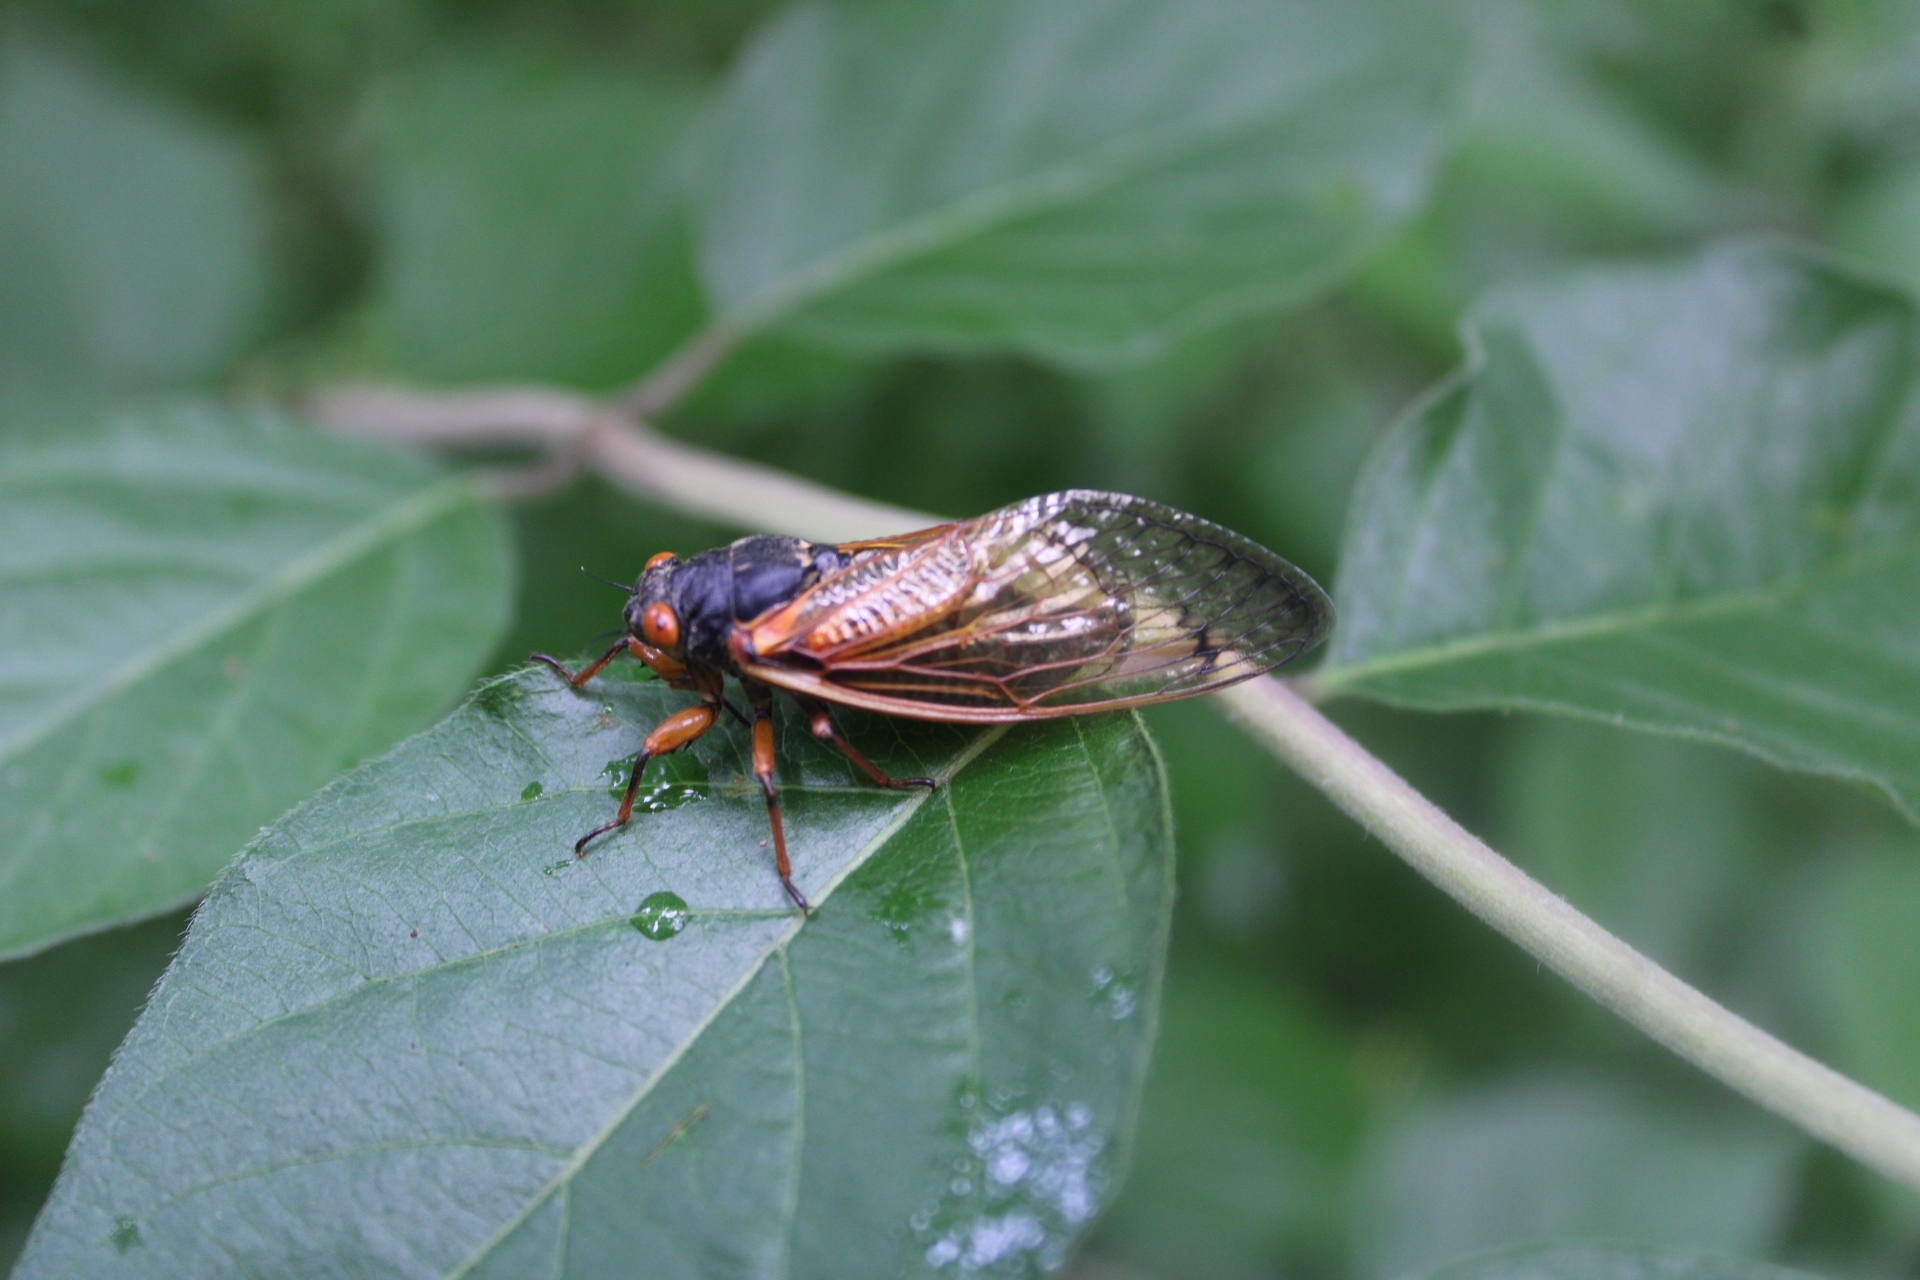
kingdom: Animalia
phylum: Arthropoda
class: Insecta
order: Hemiptera
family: Cicadidae
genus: Magicicada
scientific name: Magicicada
